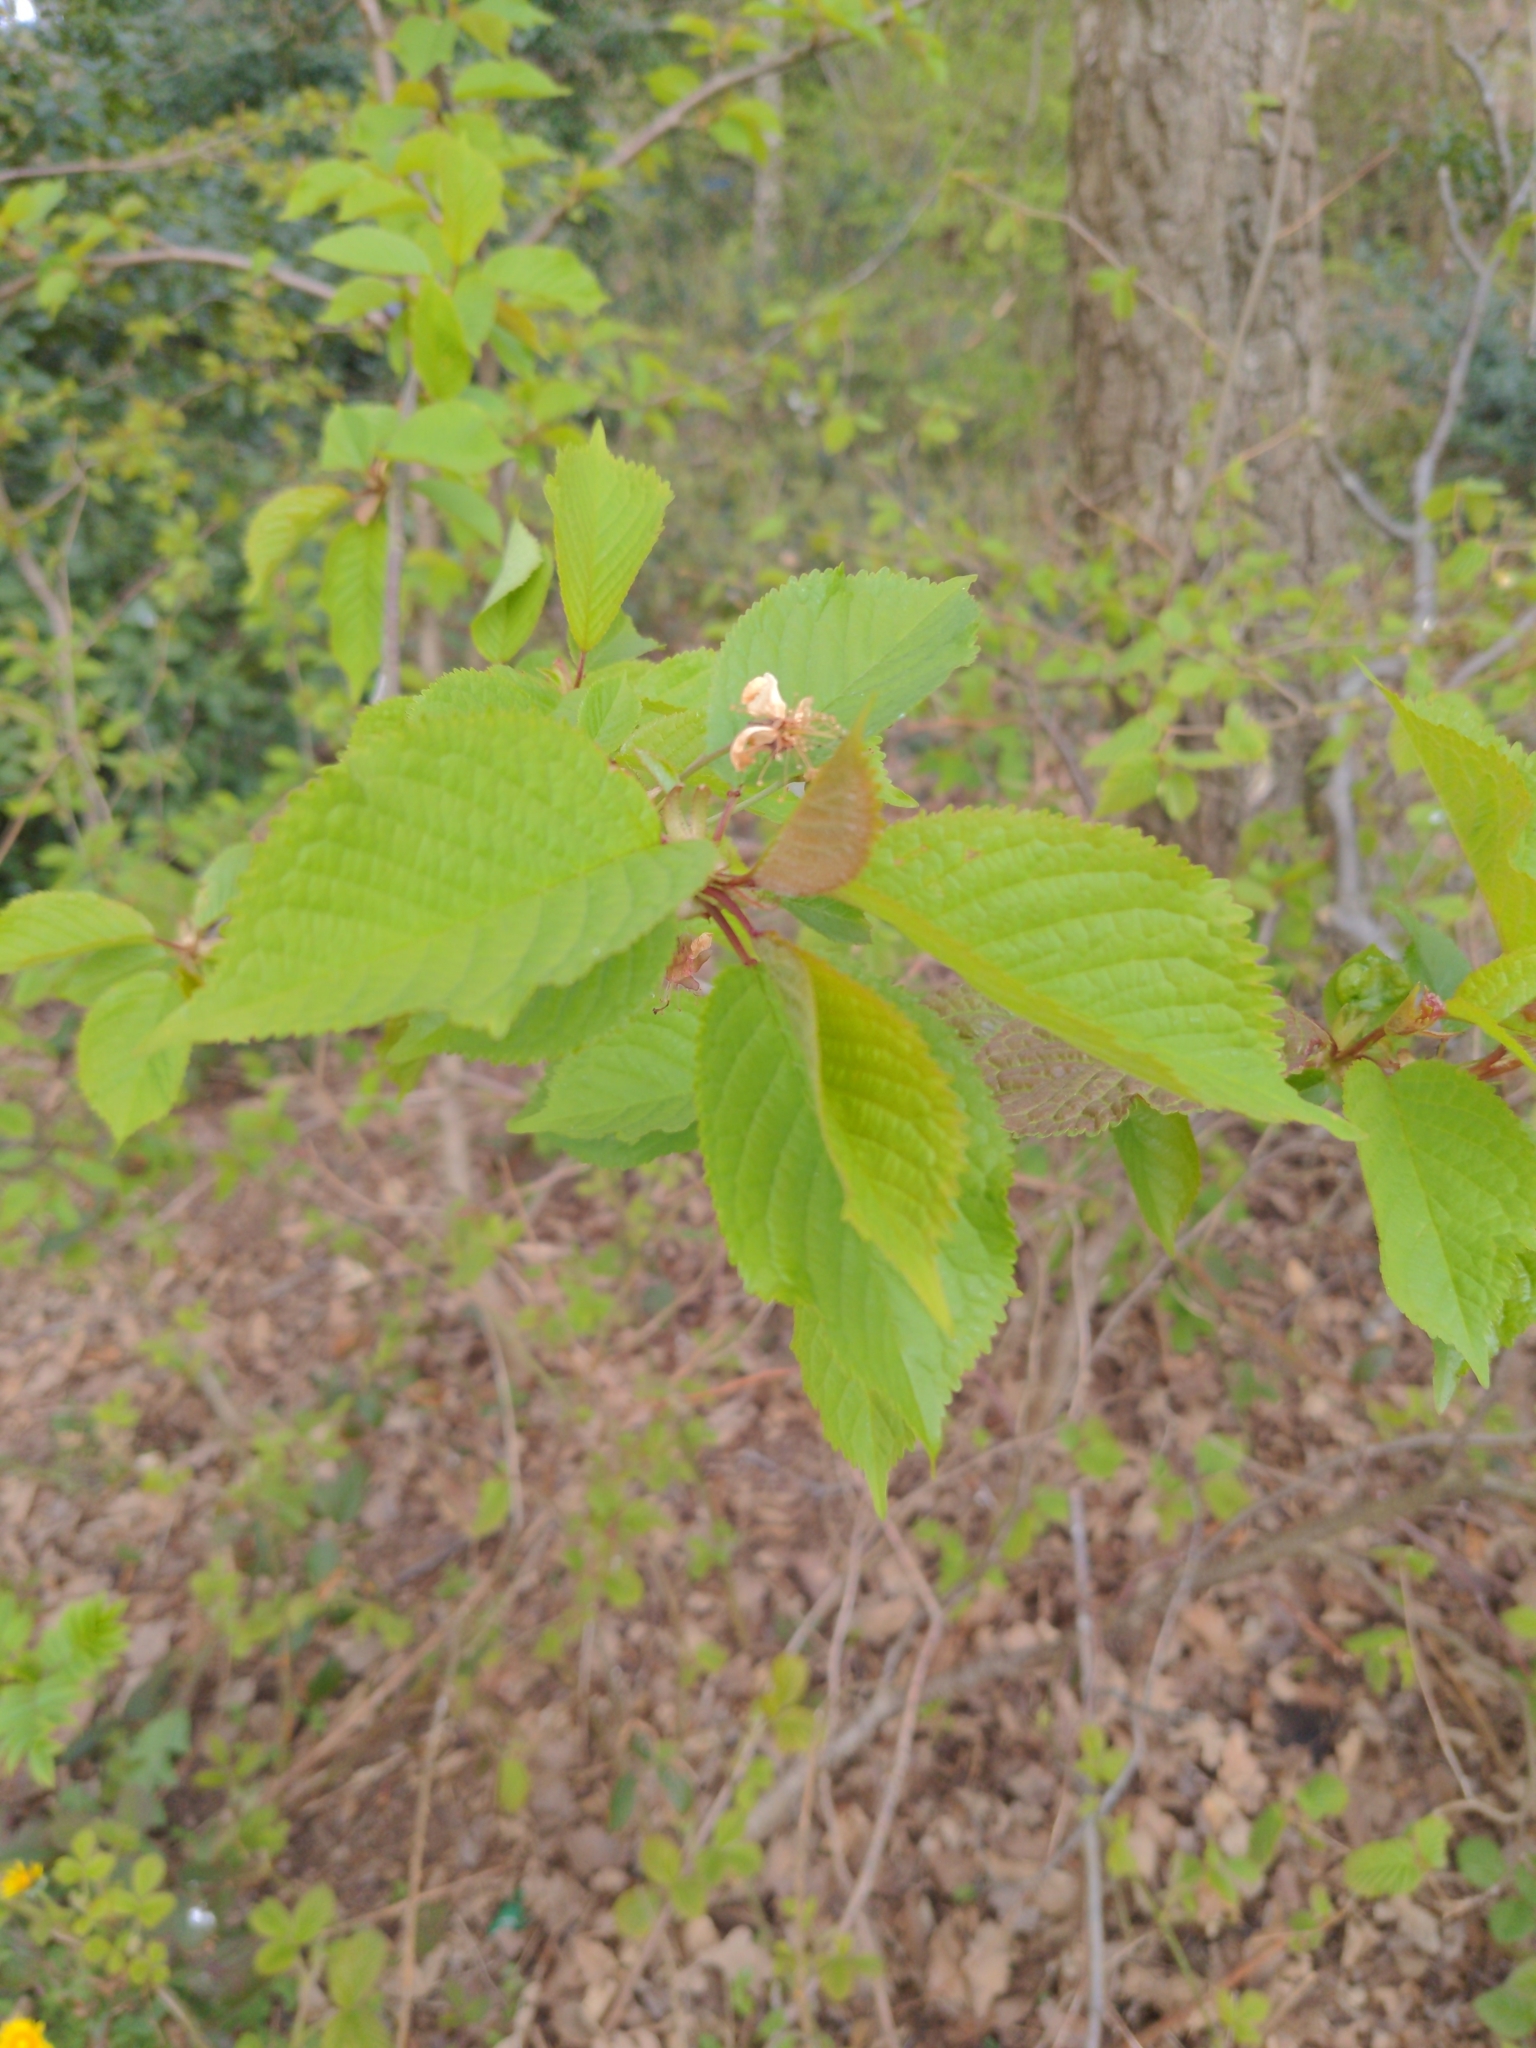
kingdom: Plantae
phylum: Tracheophyta
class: Magnoliopsida
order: Rosales
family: Rosaceae
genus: Prunus
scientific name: Prunus avium
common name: Sweet cherry
